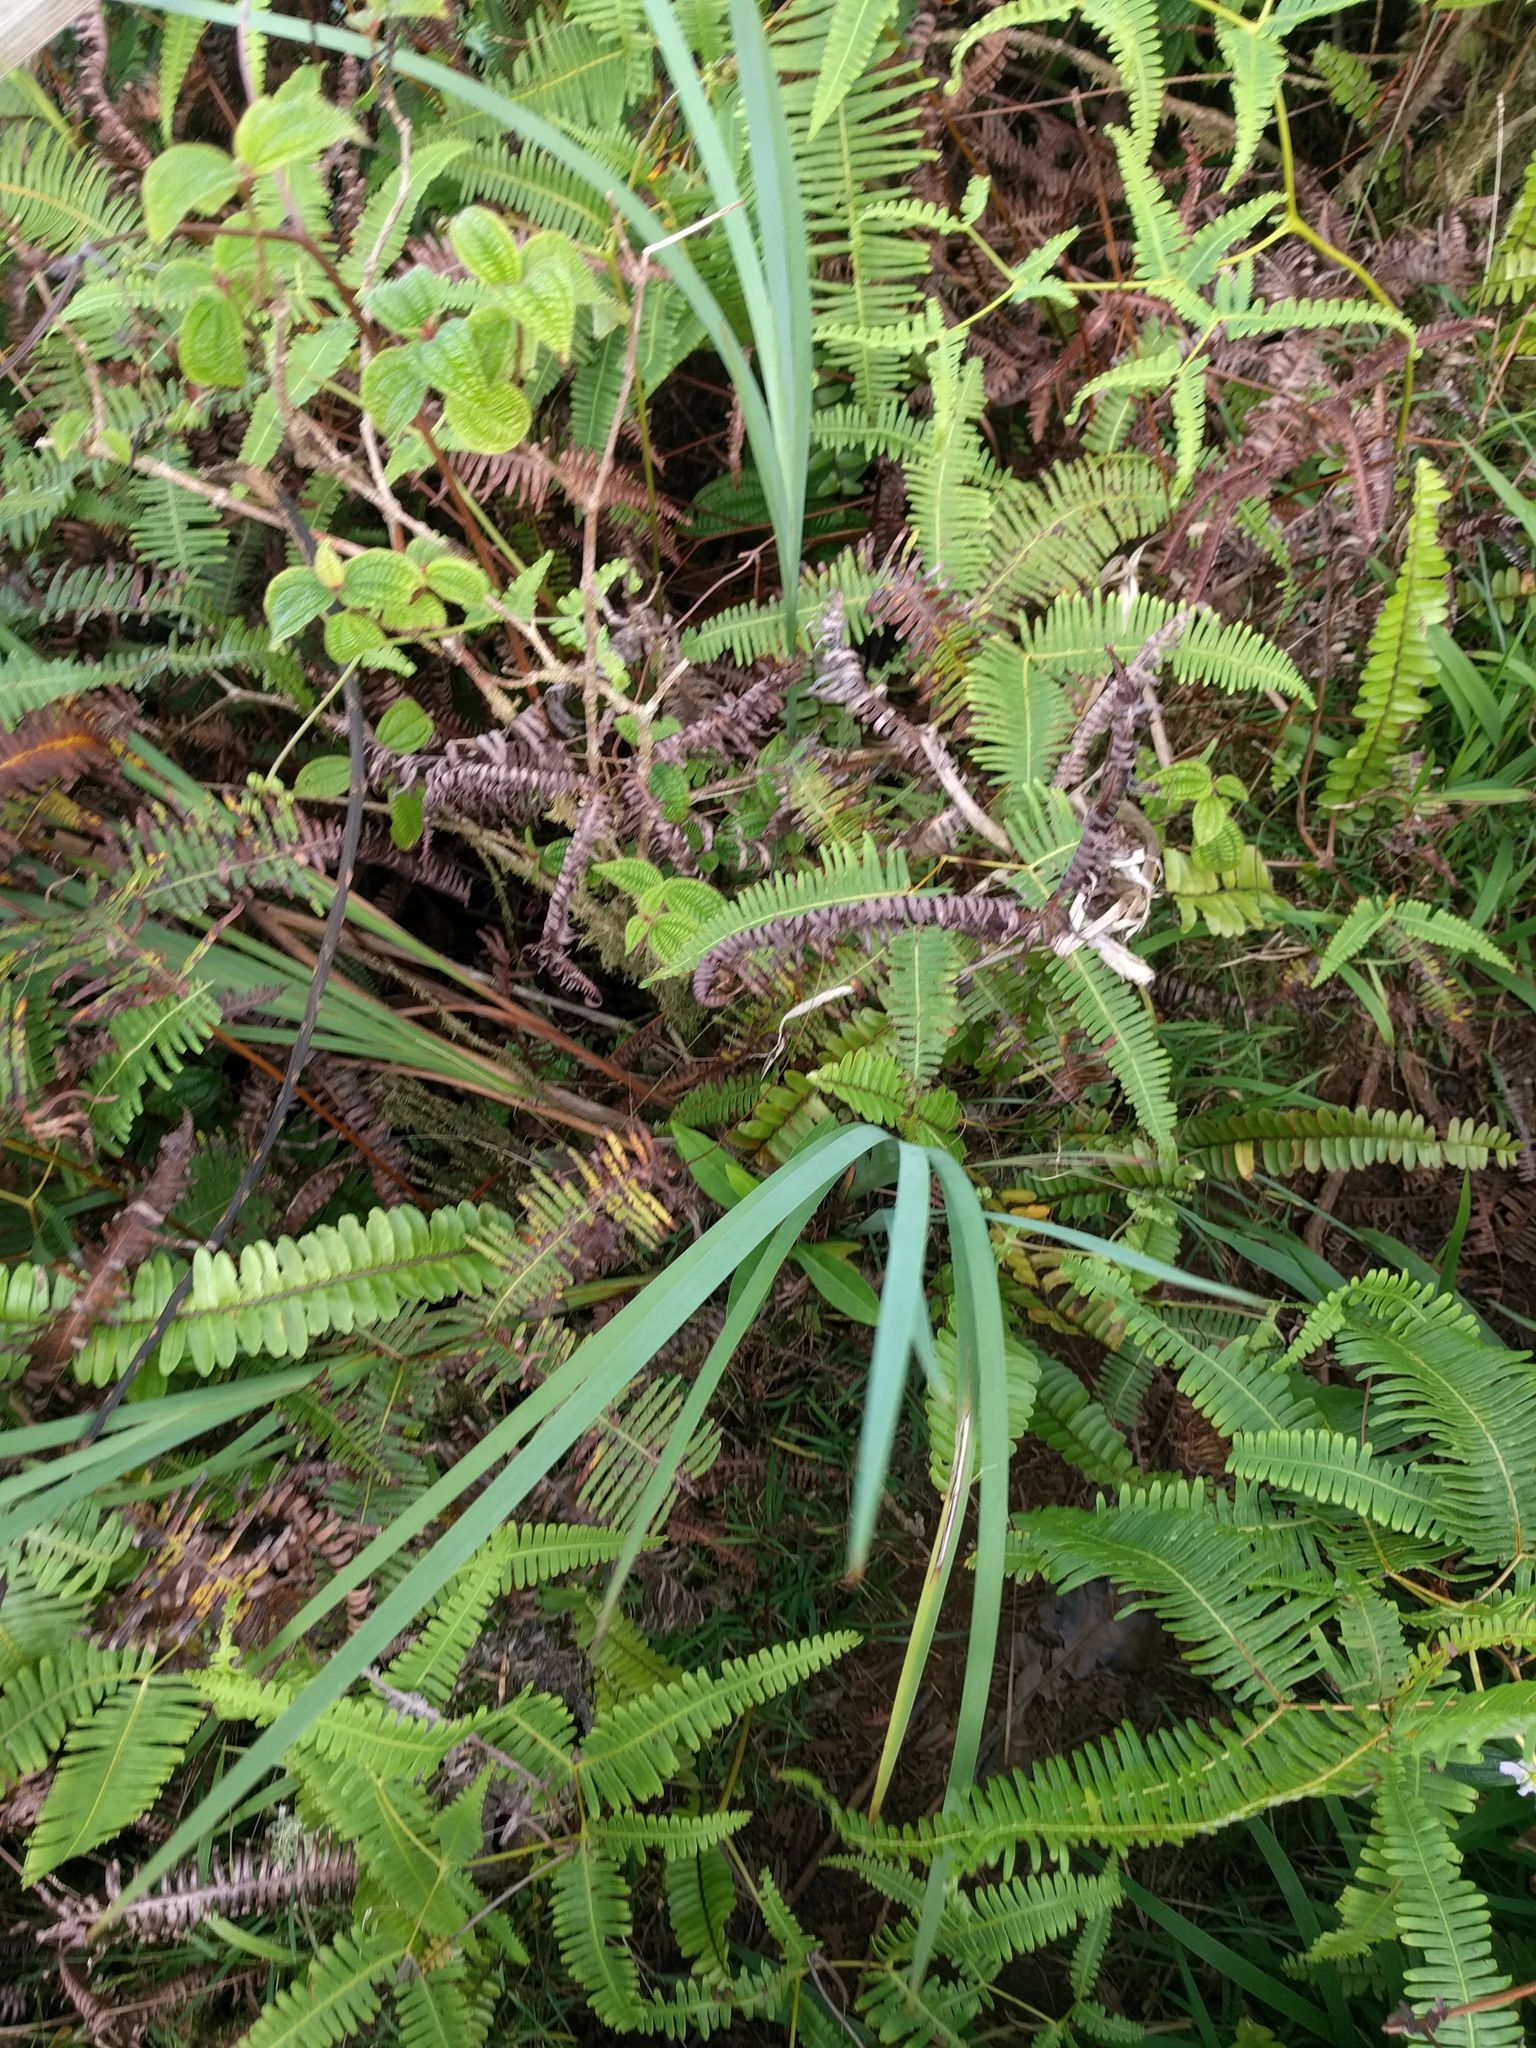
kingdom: Plantae
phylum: Tracheophyta
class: Liliopsida
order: Poales
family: Cyperaceae
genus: Machaerina
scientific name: Machaerina mariscoides
